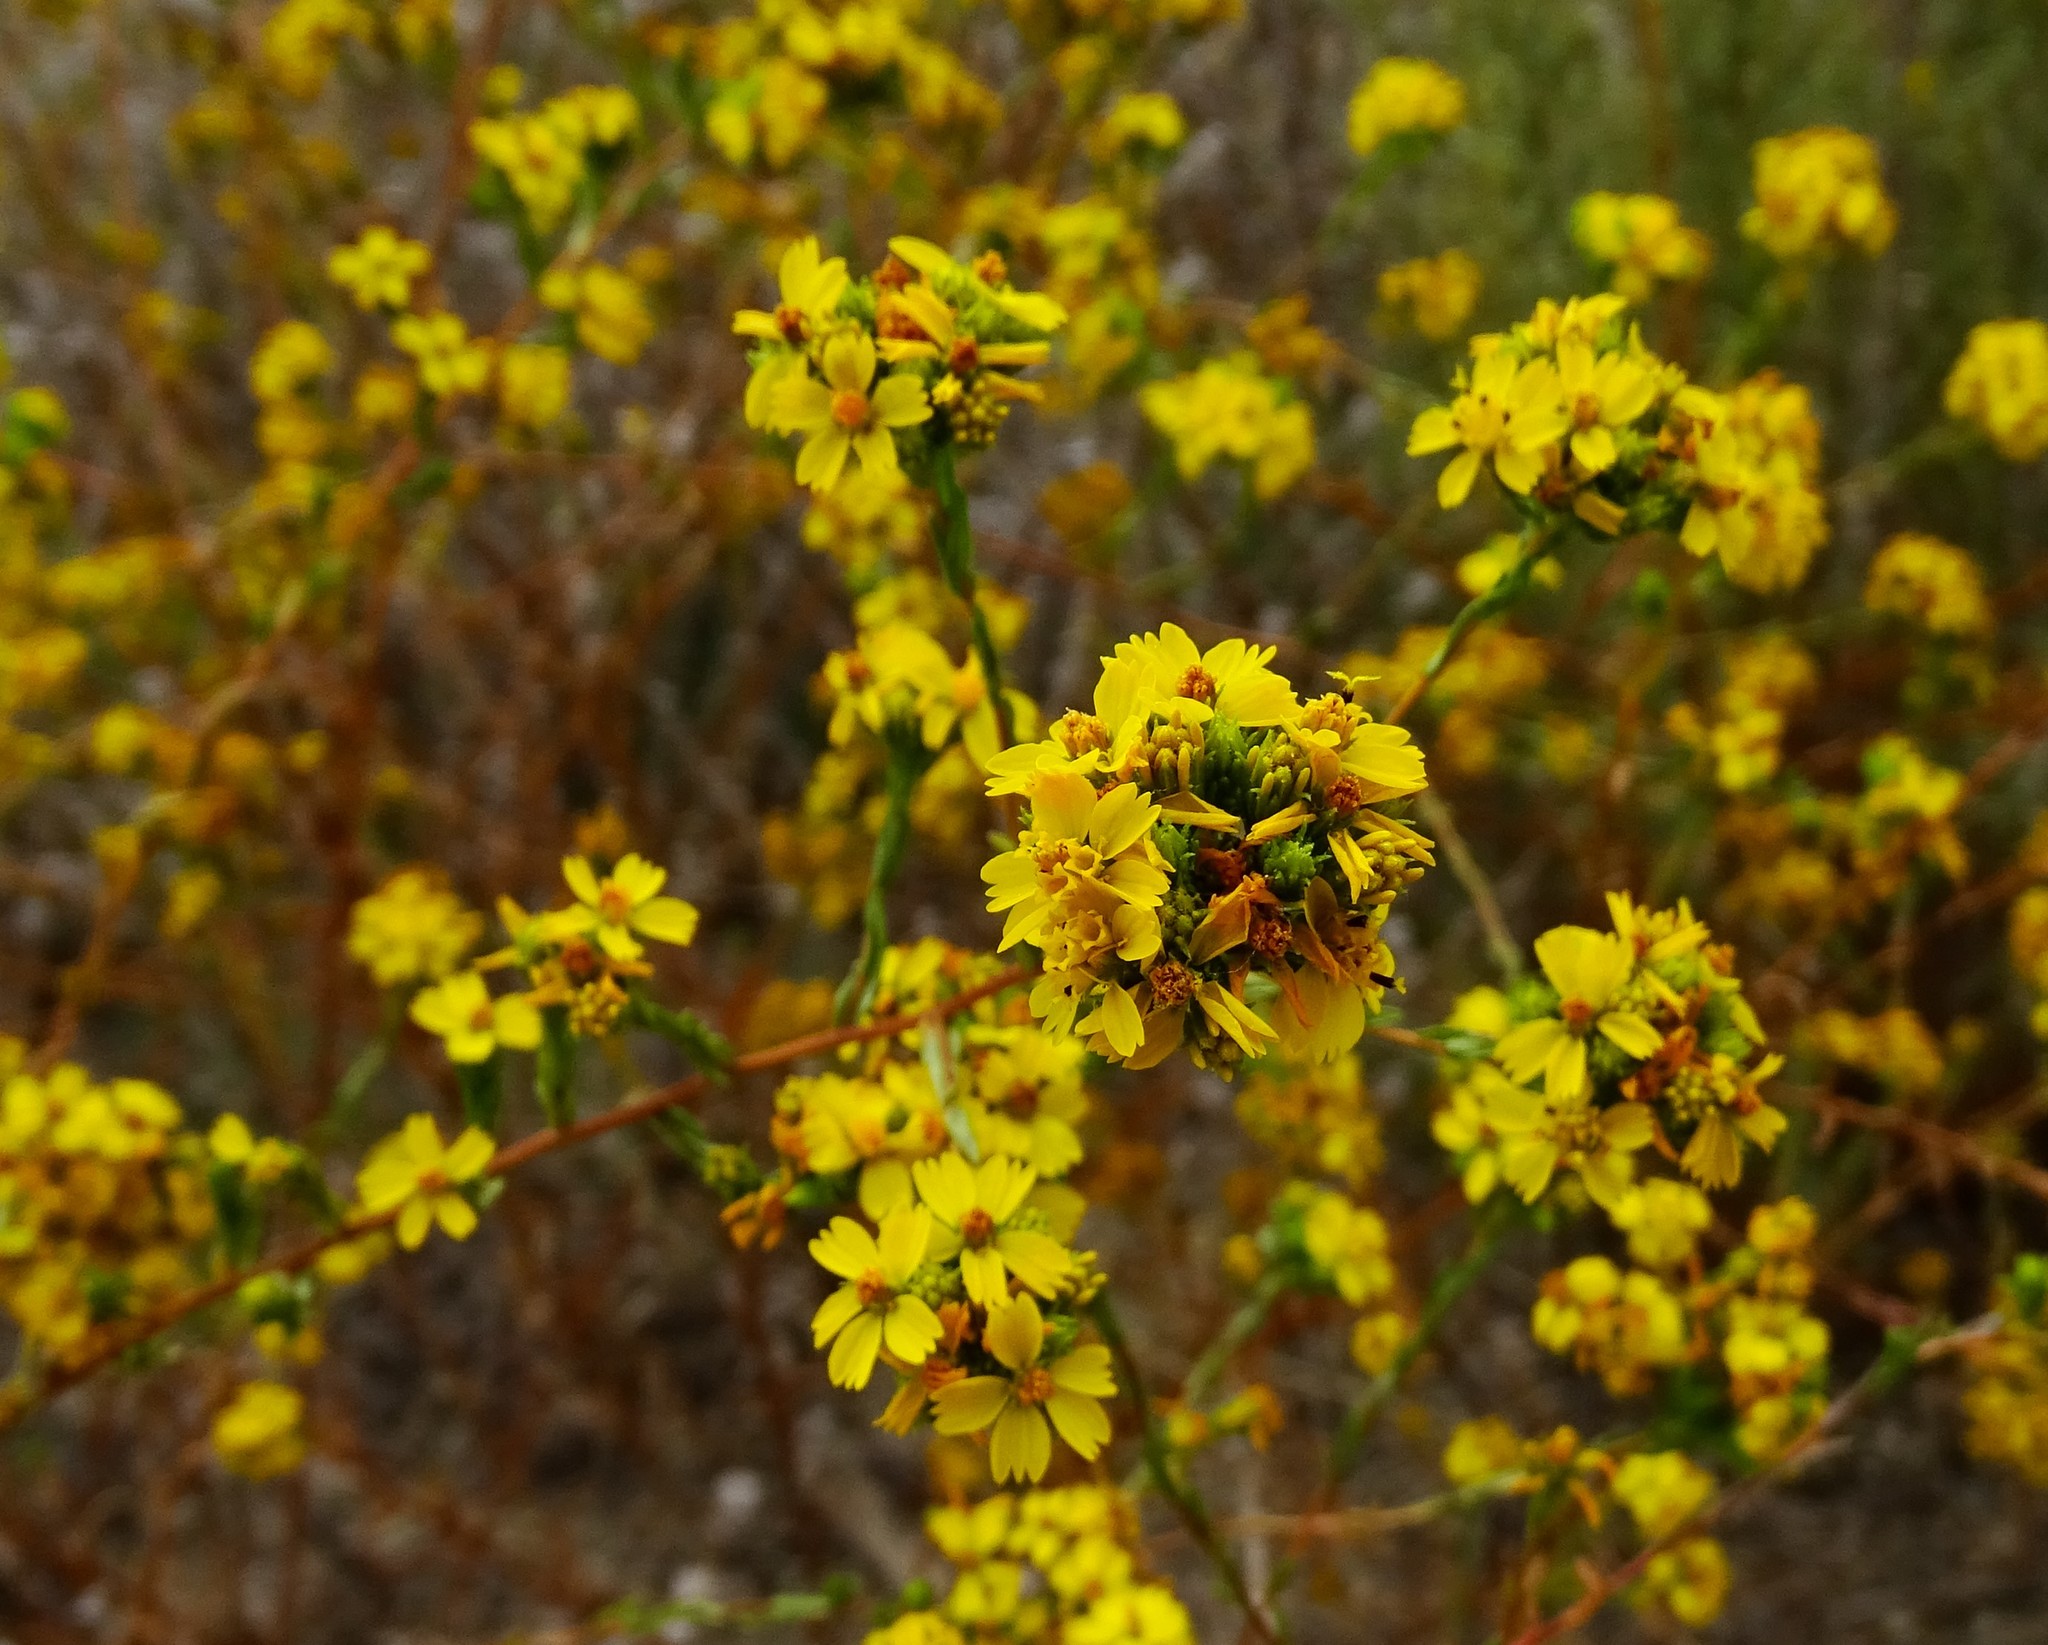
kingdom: Plantae
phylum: Tracheophyta
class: Magnoliopsida
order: Asterales
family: Asteraceae
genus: Deinandra
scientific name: Deinandra fasciculata
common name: Clustered tarweed
